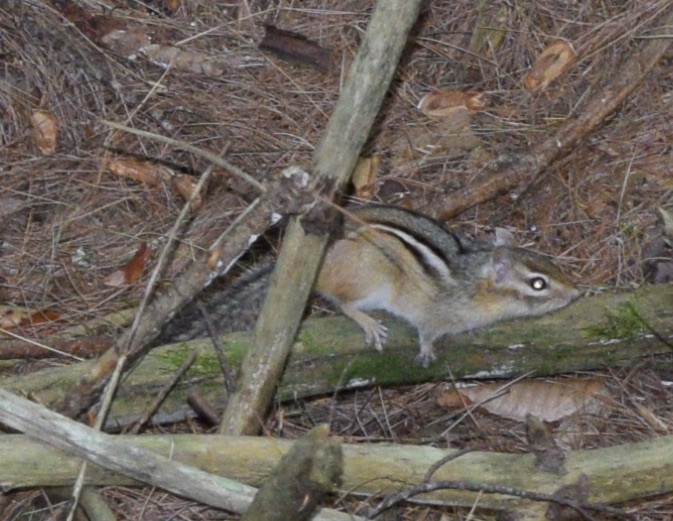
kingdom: Animalia
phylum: Chordata
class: Mammalia
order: Rodentia
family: Sciuridae
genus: Tamias
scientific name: Tamias striatus
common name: Eastern chipmunk
